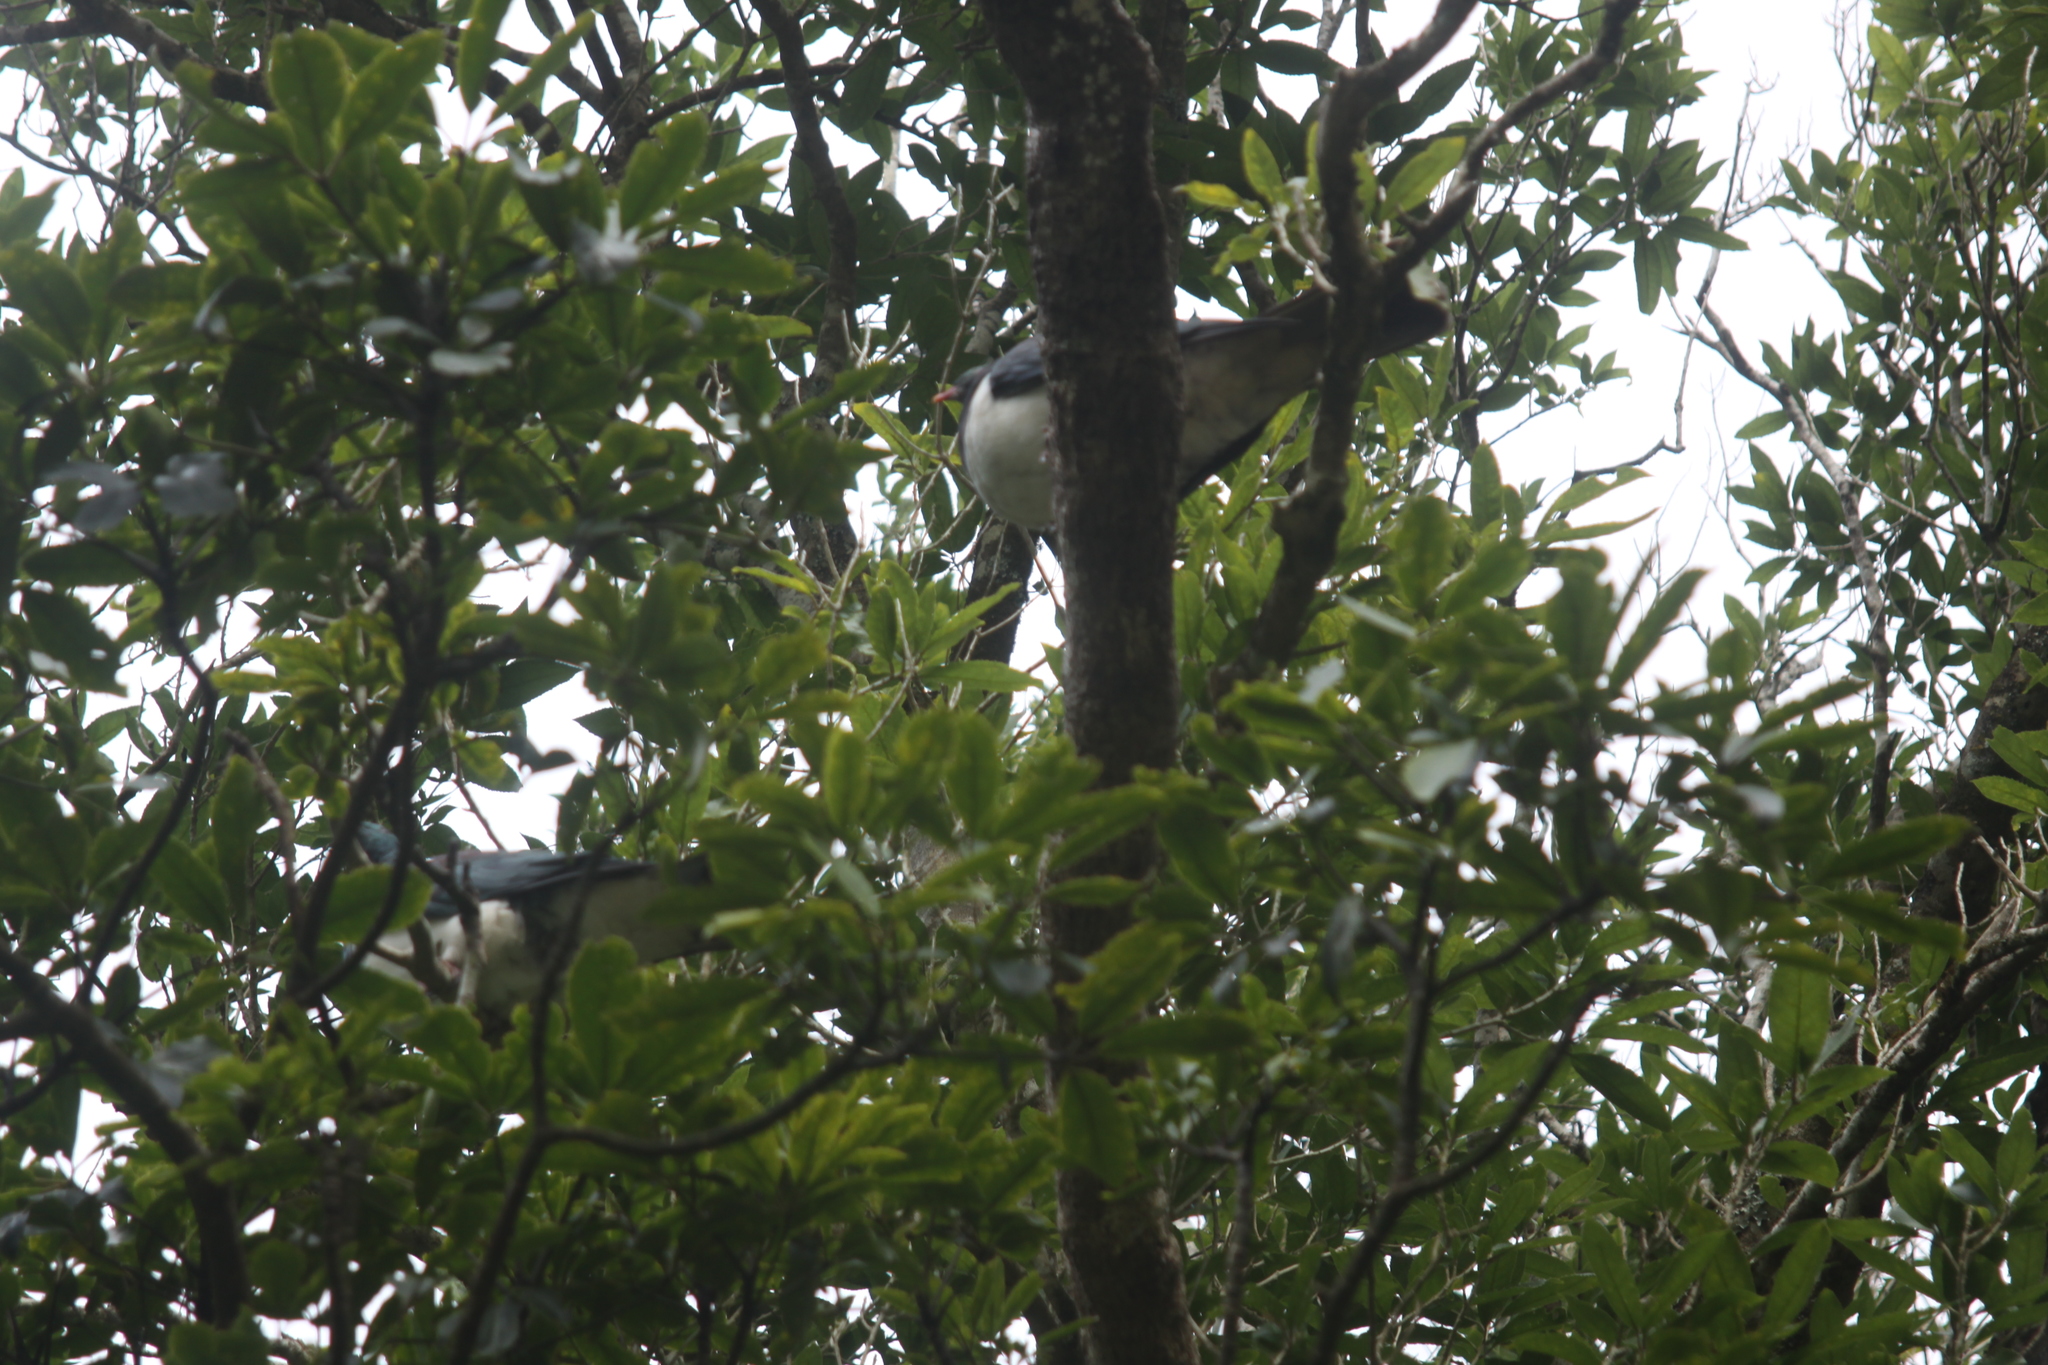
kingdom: Animalia
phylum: Chordata
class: Aves
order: Columbiformes
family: Columbidae
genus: Hemiphaga
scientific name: Hemiphaga novaeseelandiae
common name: New zealand pigeon
